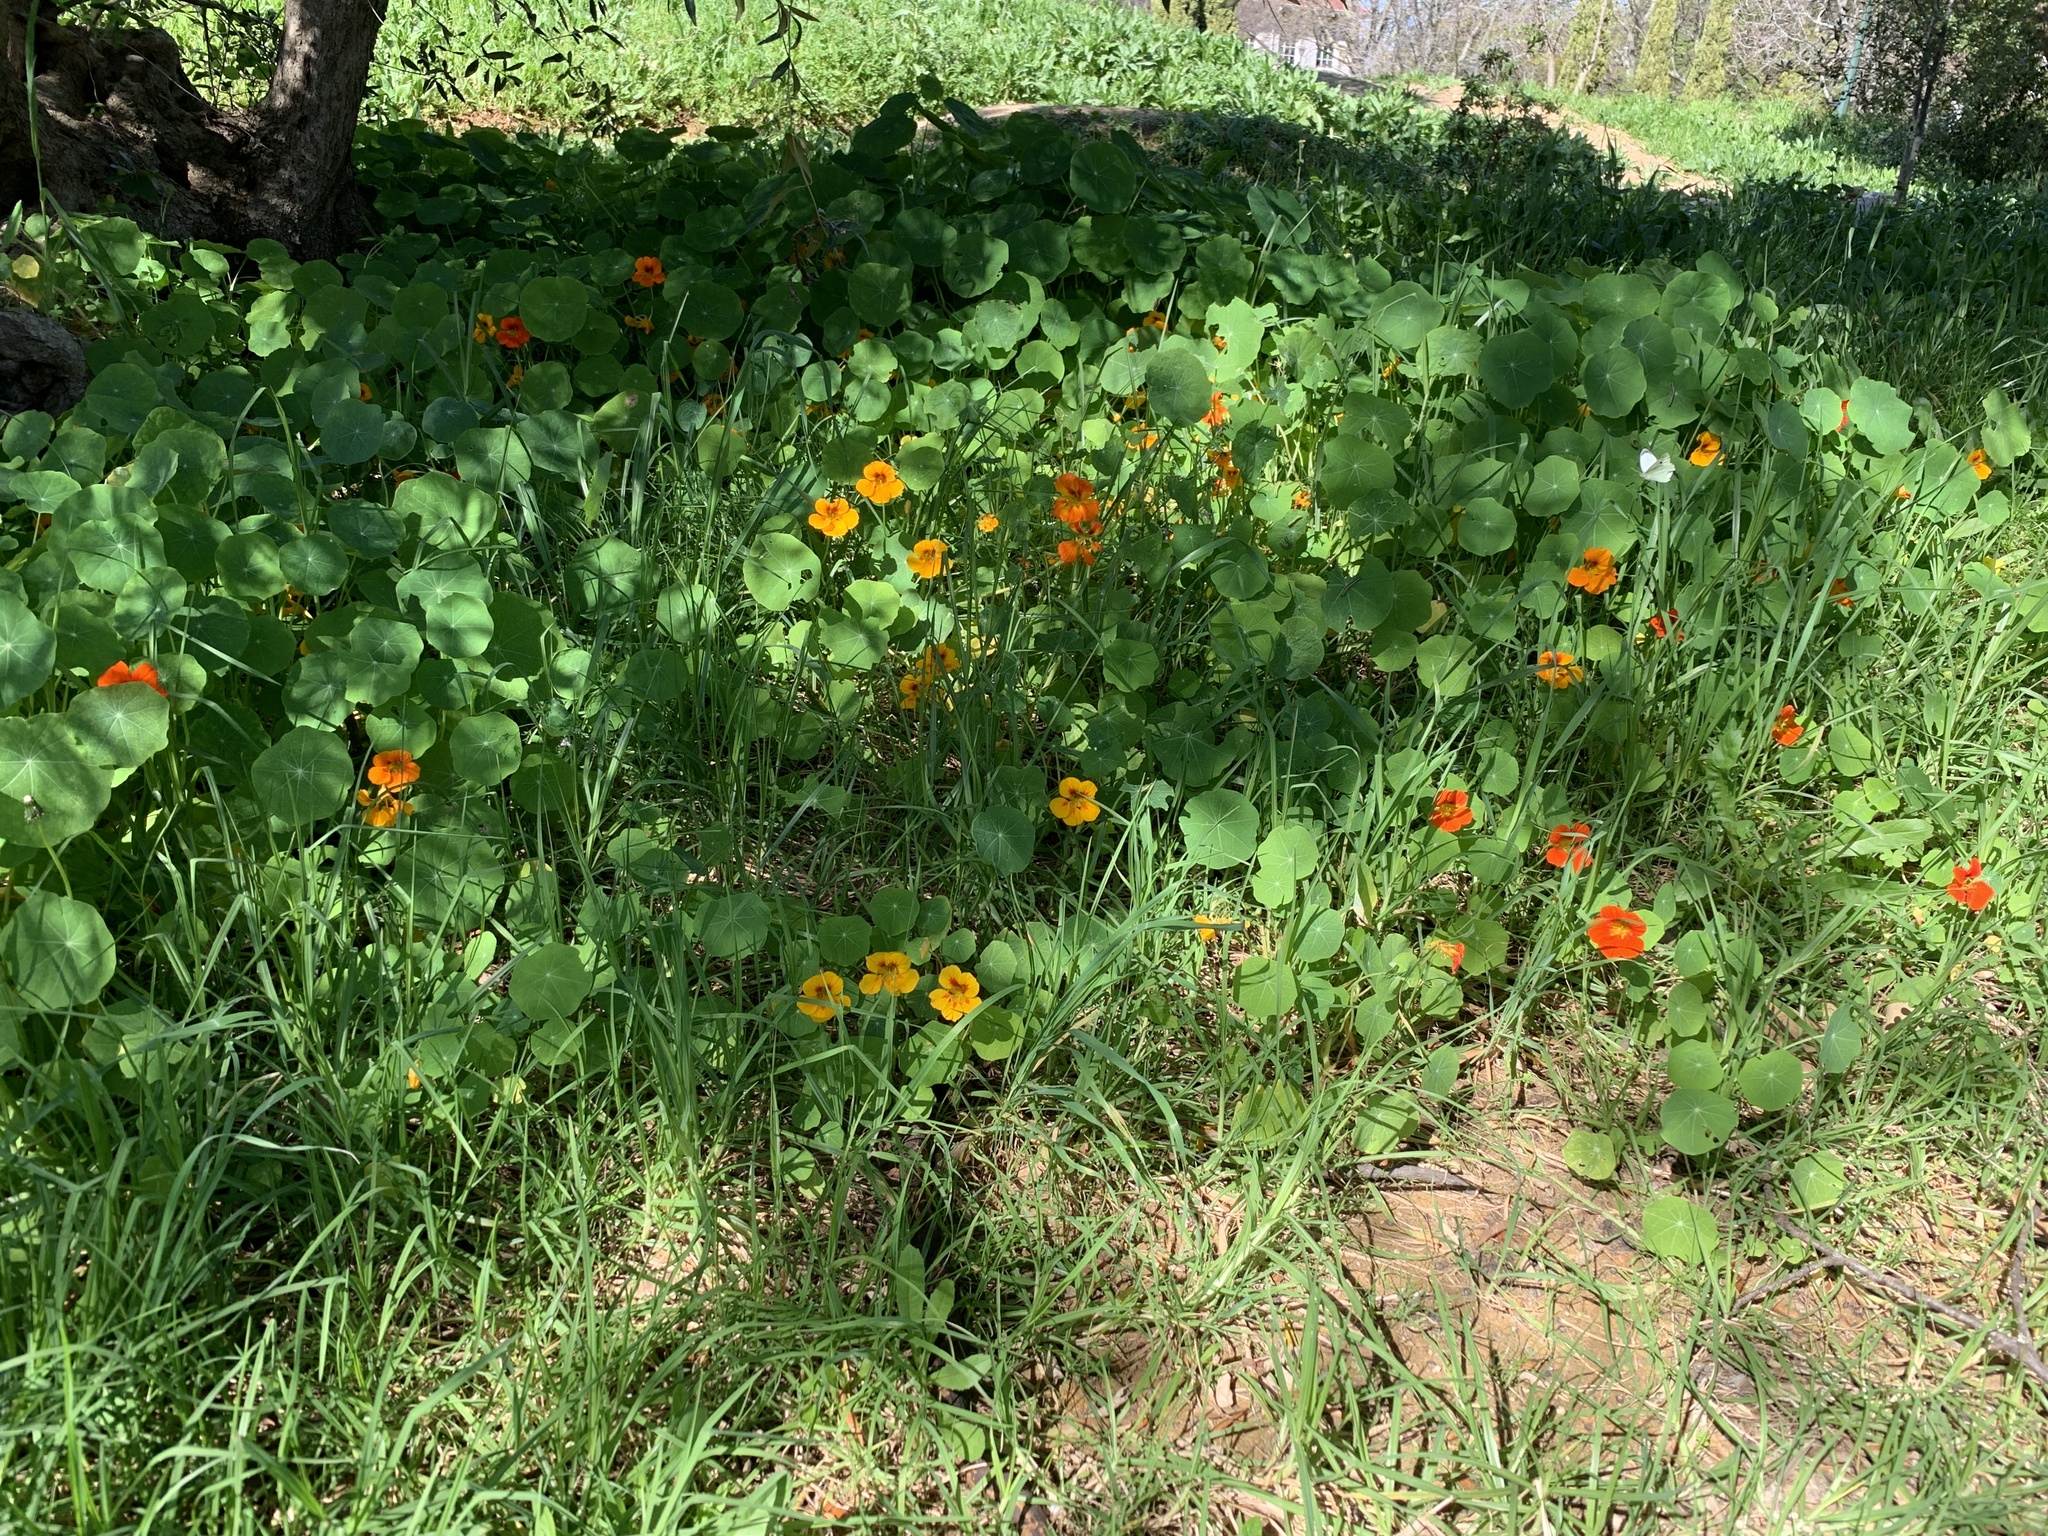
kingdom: Plantae
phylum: Tracheophyta
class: Magnoliopsida
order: Brassicales
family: Tropaeolaceae
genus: Tropaeolum
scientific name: Tropaeolum majus
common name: Nasturtium
